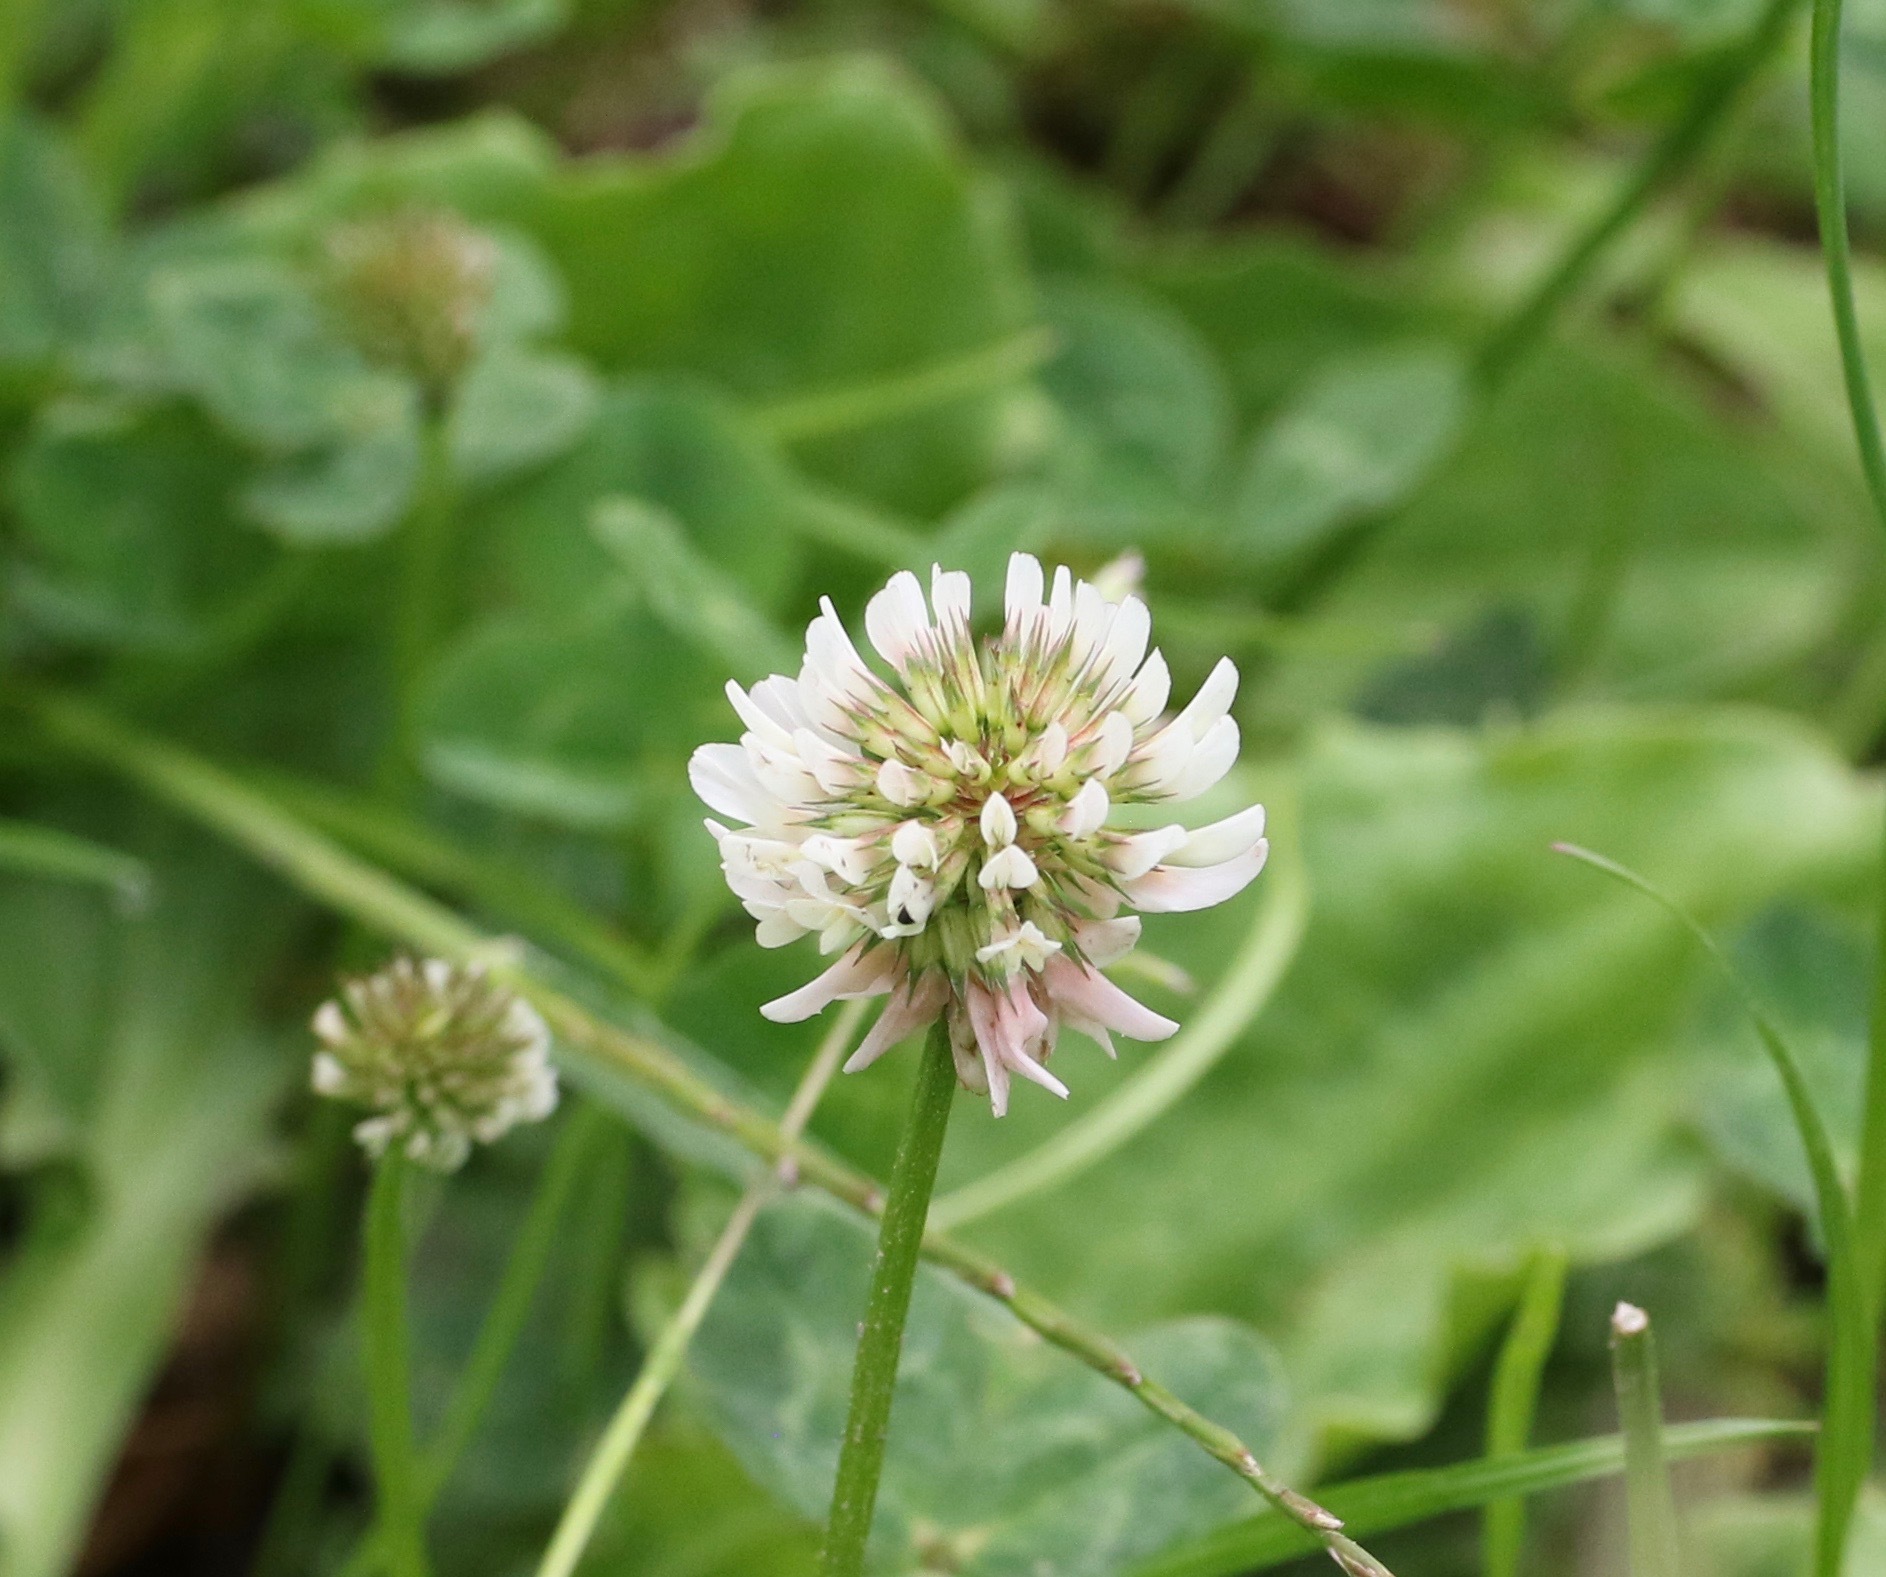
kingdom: Plantae
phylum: Tracheophyta
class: Magnoliopsida
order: Fabales
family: Fabaceae
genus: Trifolium
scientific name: Trifolium repens
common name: White clover
